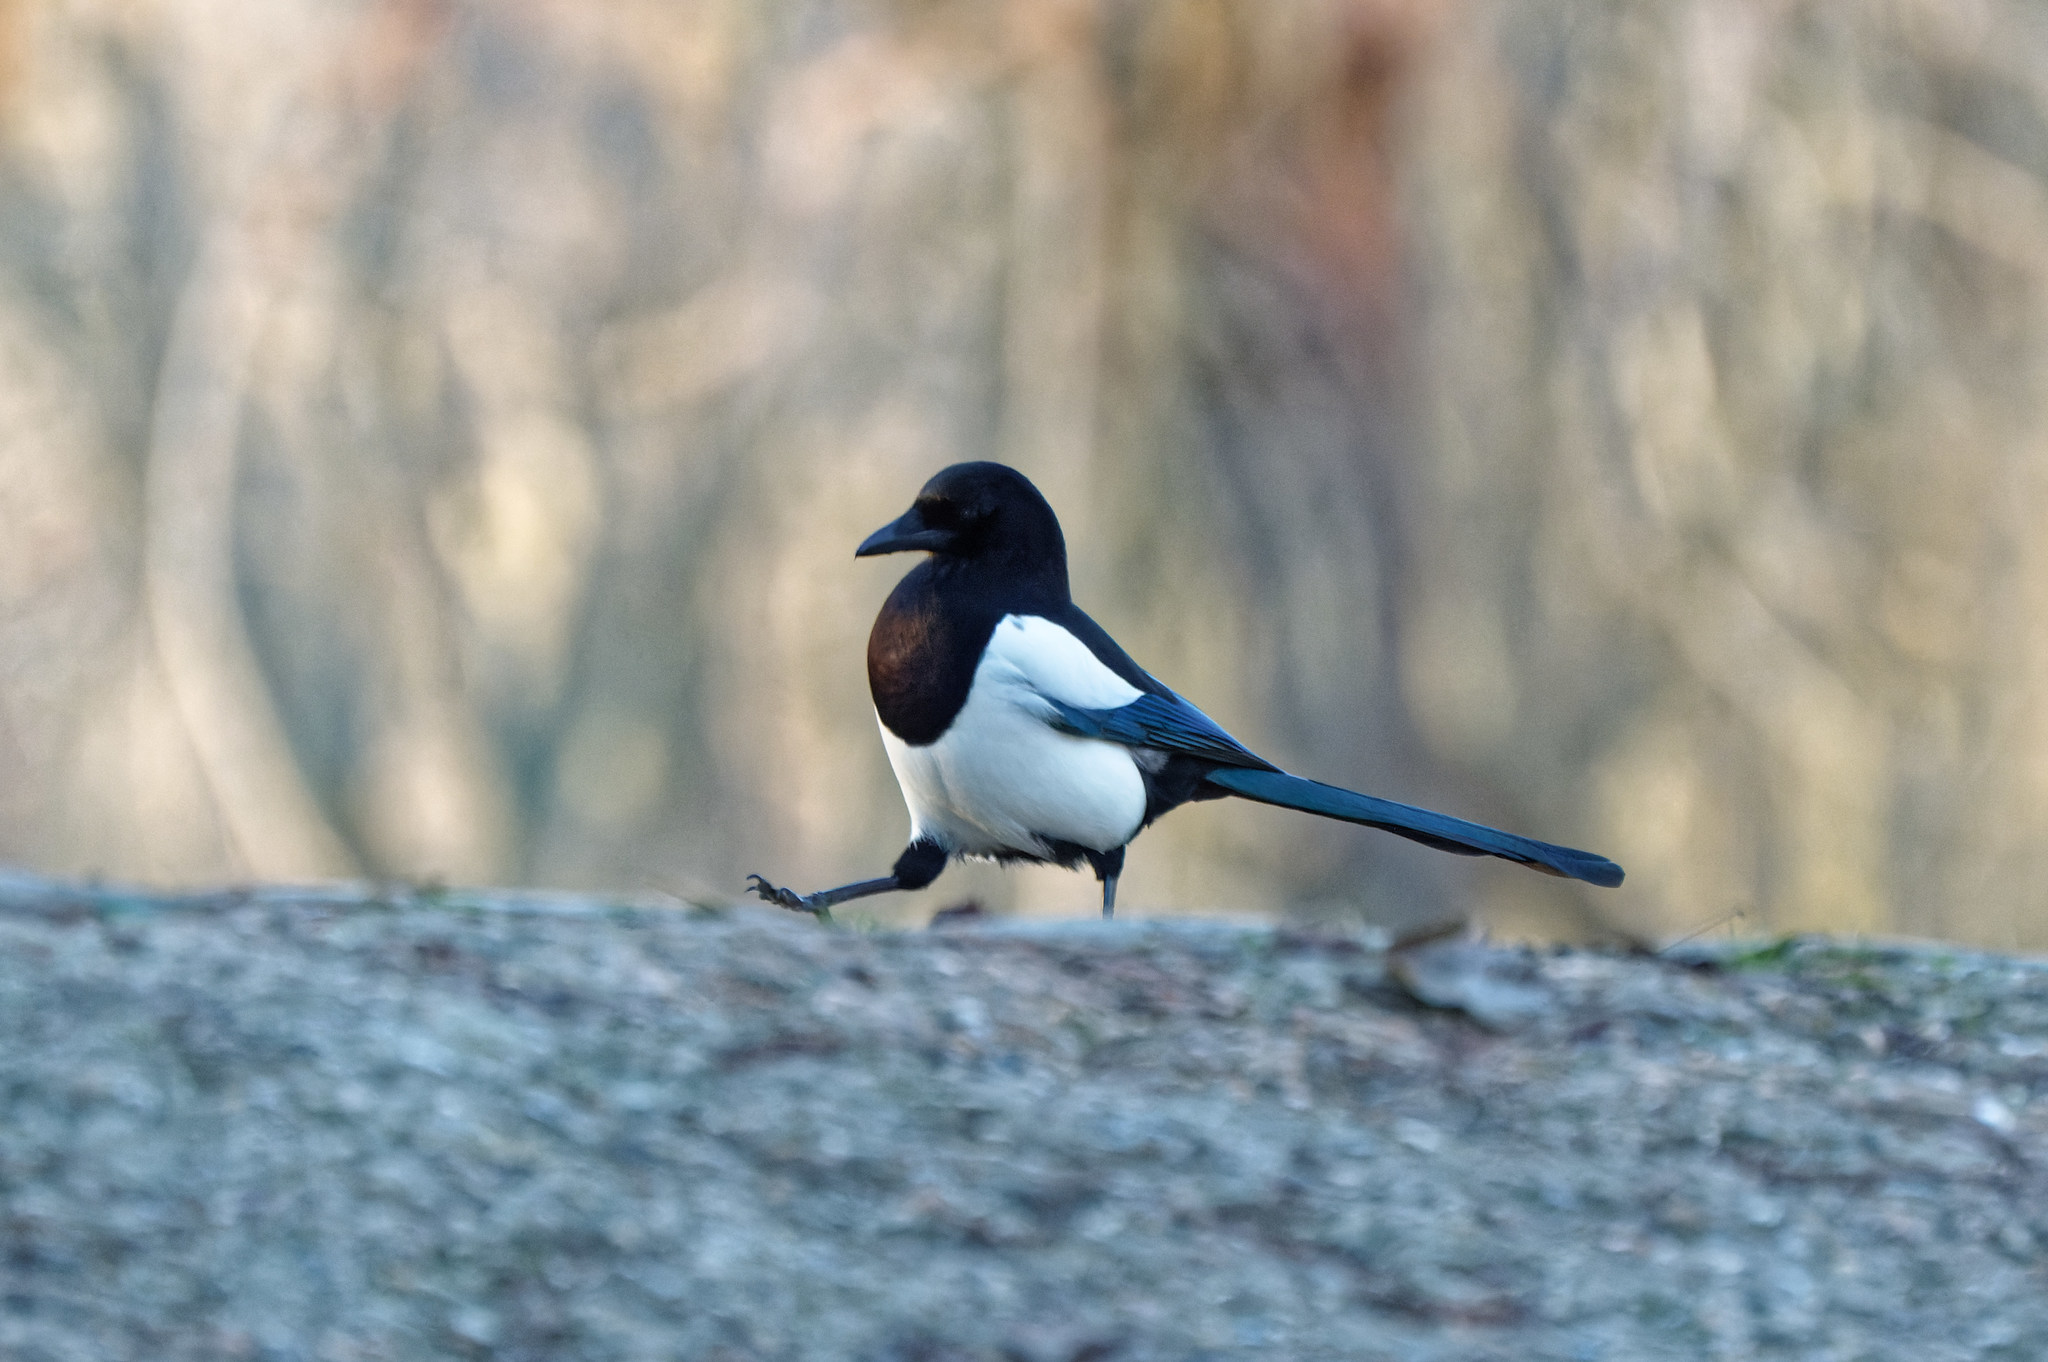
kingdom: Animalia
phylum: Chordata
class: Aves
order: Passeriformes
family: Corvidae
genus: Pica
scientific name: Pica pica
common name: Eurasian magpie
